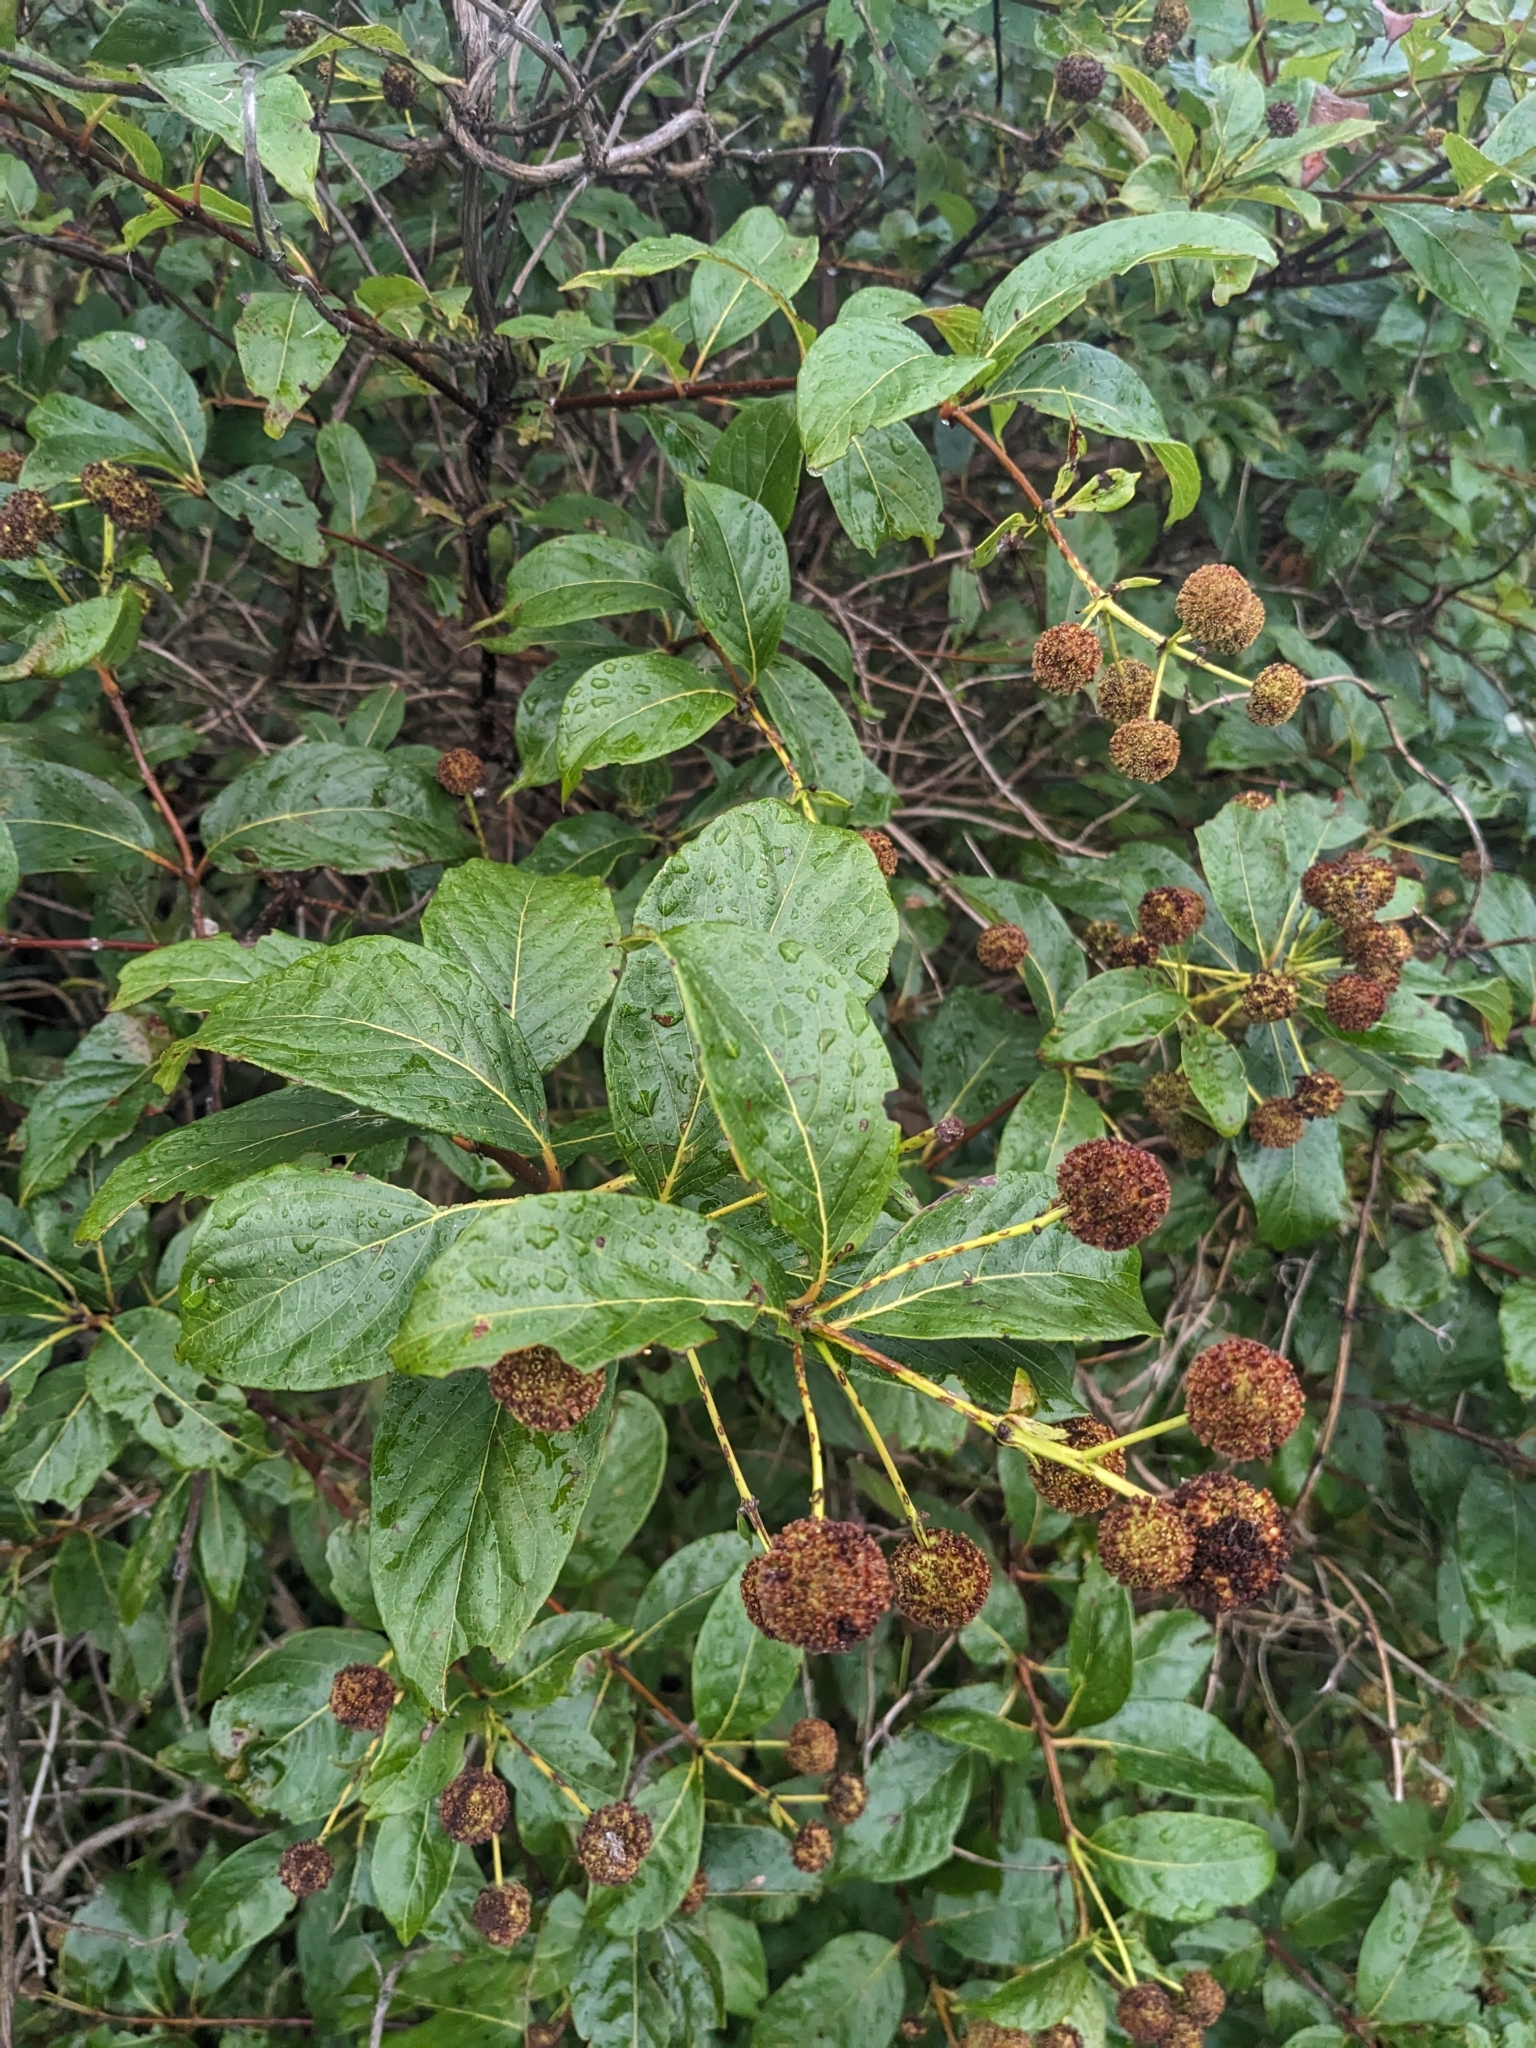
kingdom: Plantae
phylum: Tracheophyta
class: Magnoliopsida
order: Gentianales
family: Rubiaceae
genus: Cephalanthus
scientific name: Cephalanthus occidentalis
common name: Button-willow
